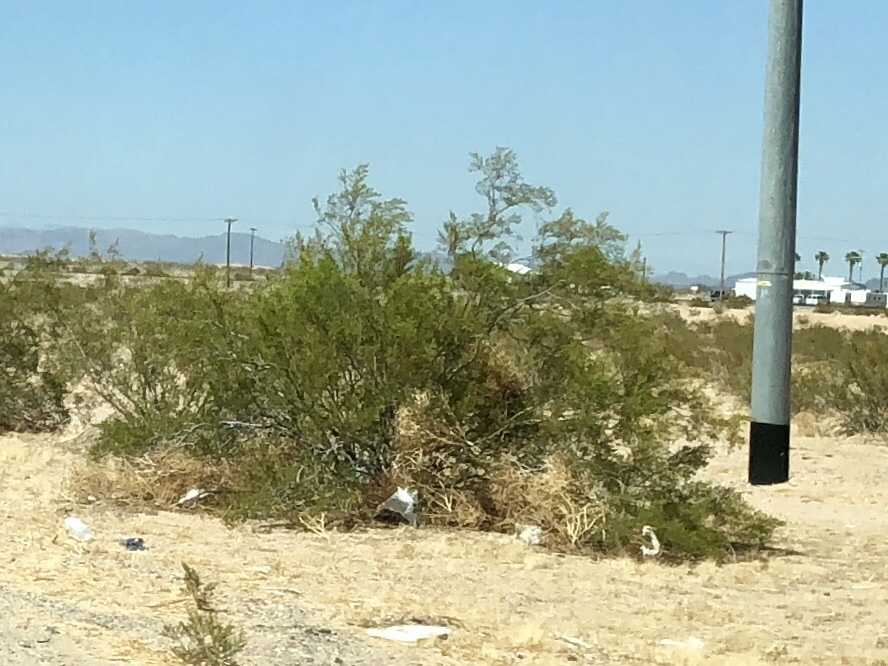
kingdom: Plantae
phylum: Tracheophyta
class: Magnoliopsida
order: Zygophyllales
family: Zygophyllaceae
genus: Larrea
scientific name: Larrea tridentata
